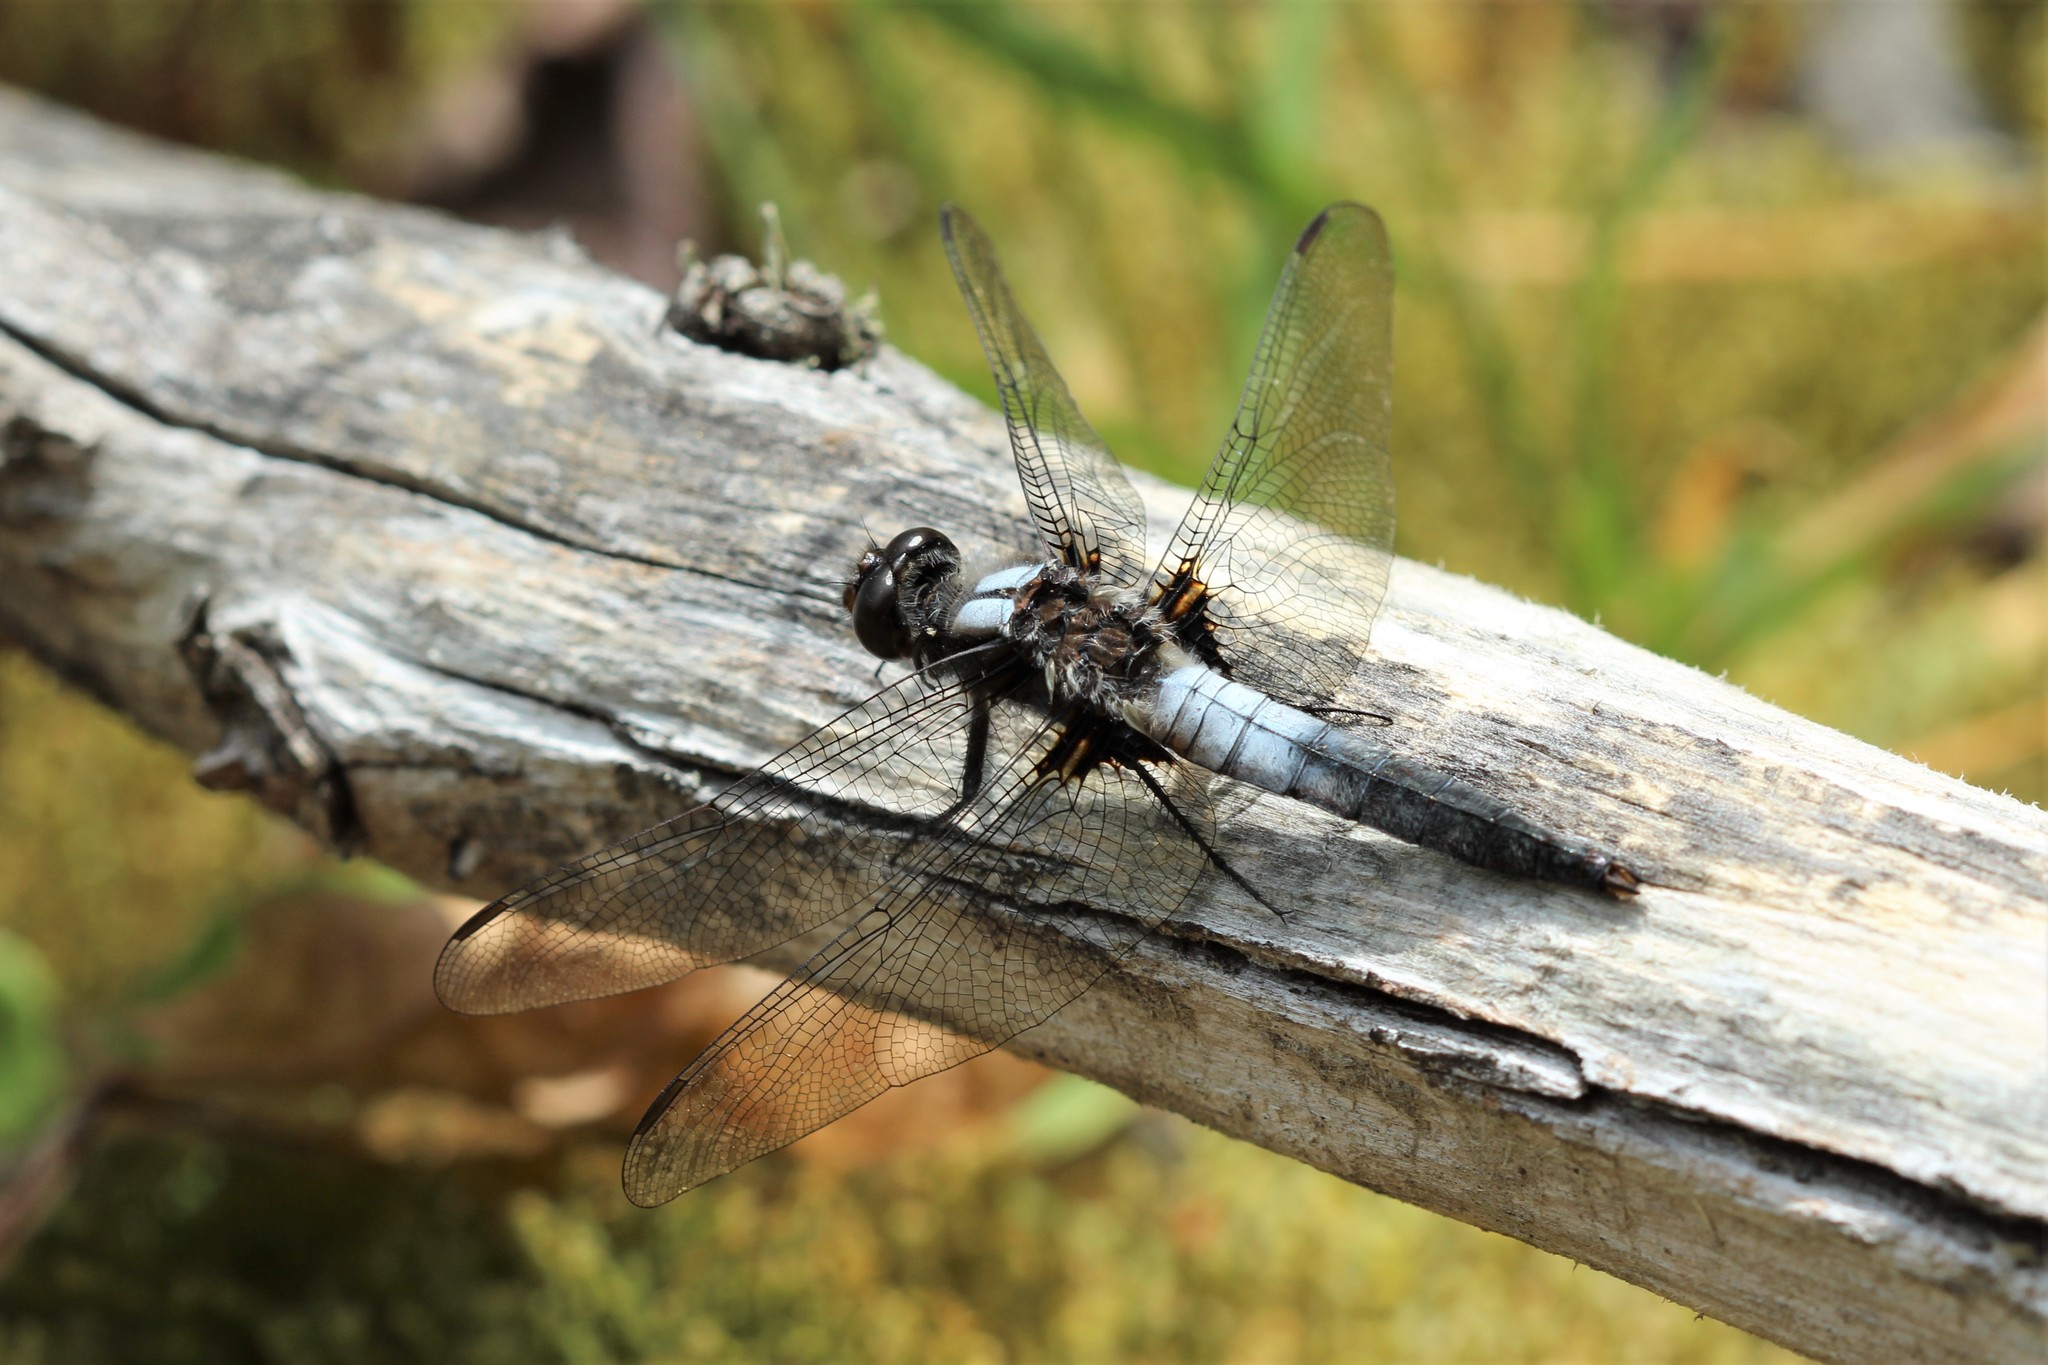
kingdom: Animalia
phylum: Arthropoda
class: Insecta
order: Odonata
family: Libellulidae
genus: Ladona
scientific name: Ladona julia
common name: Chalk-fronted corporal
